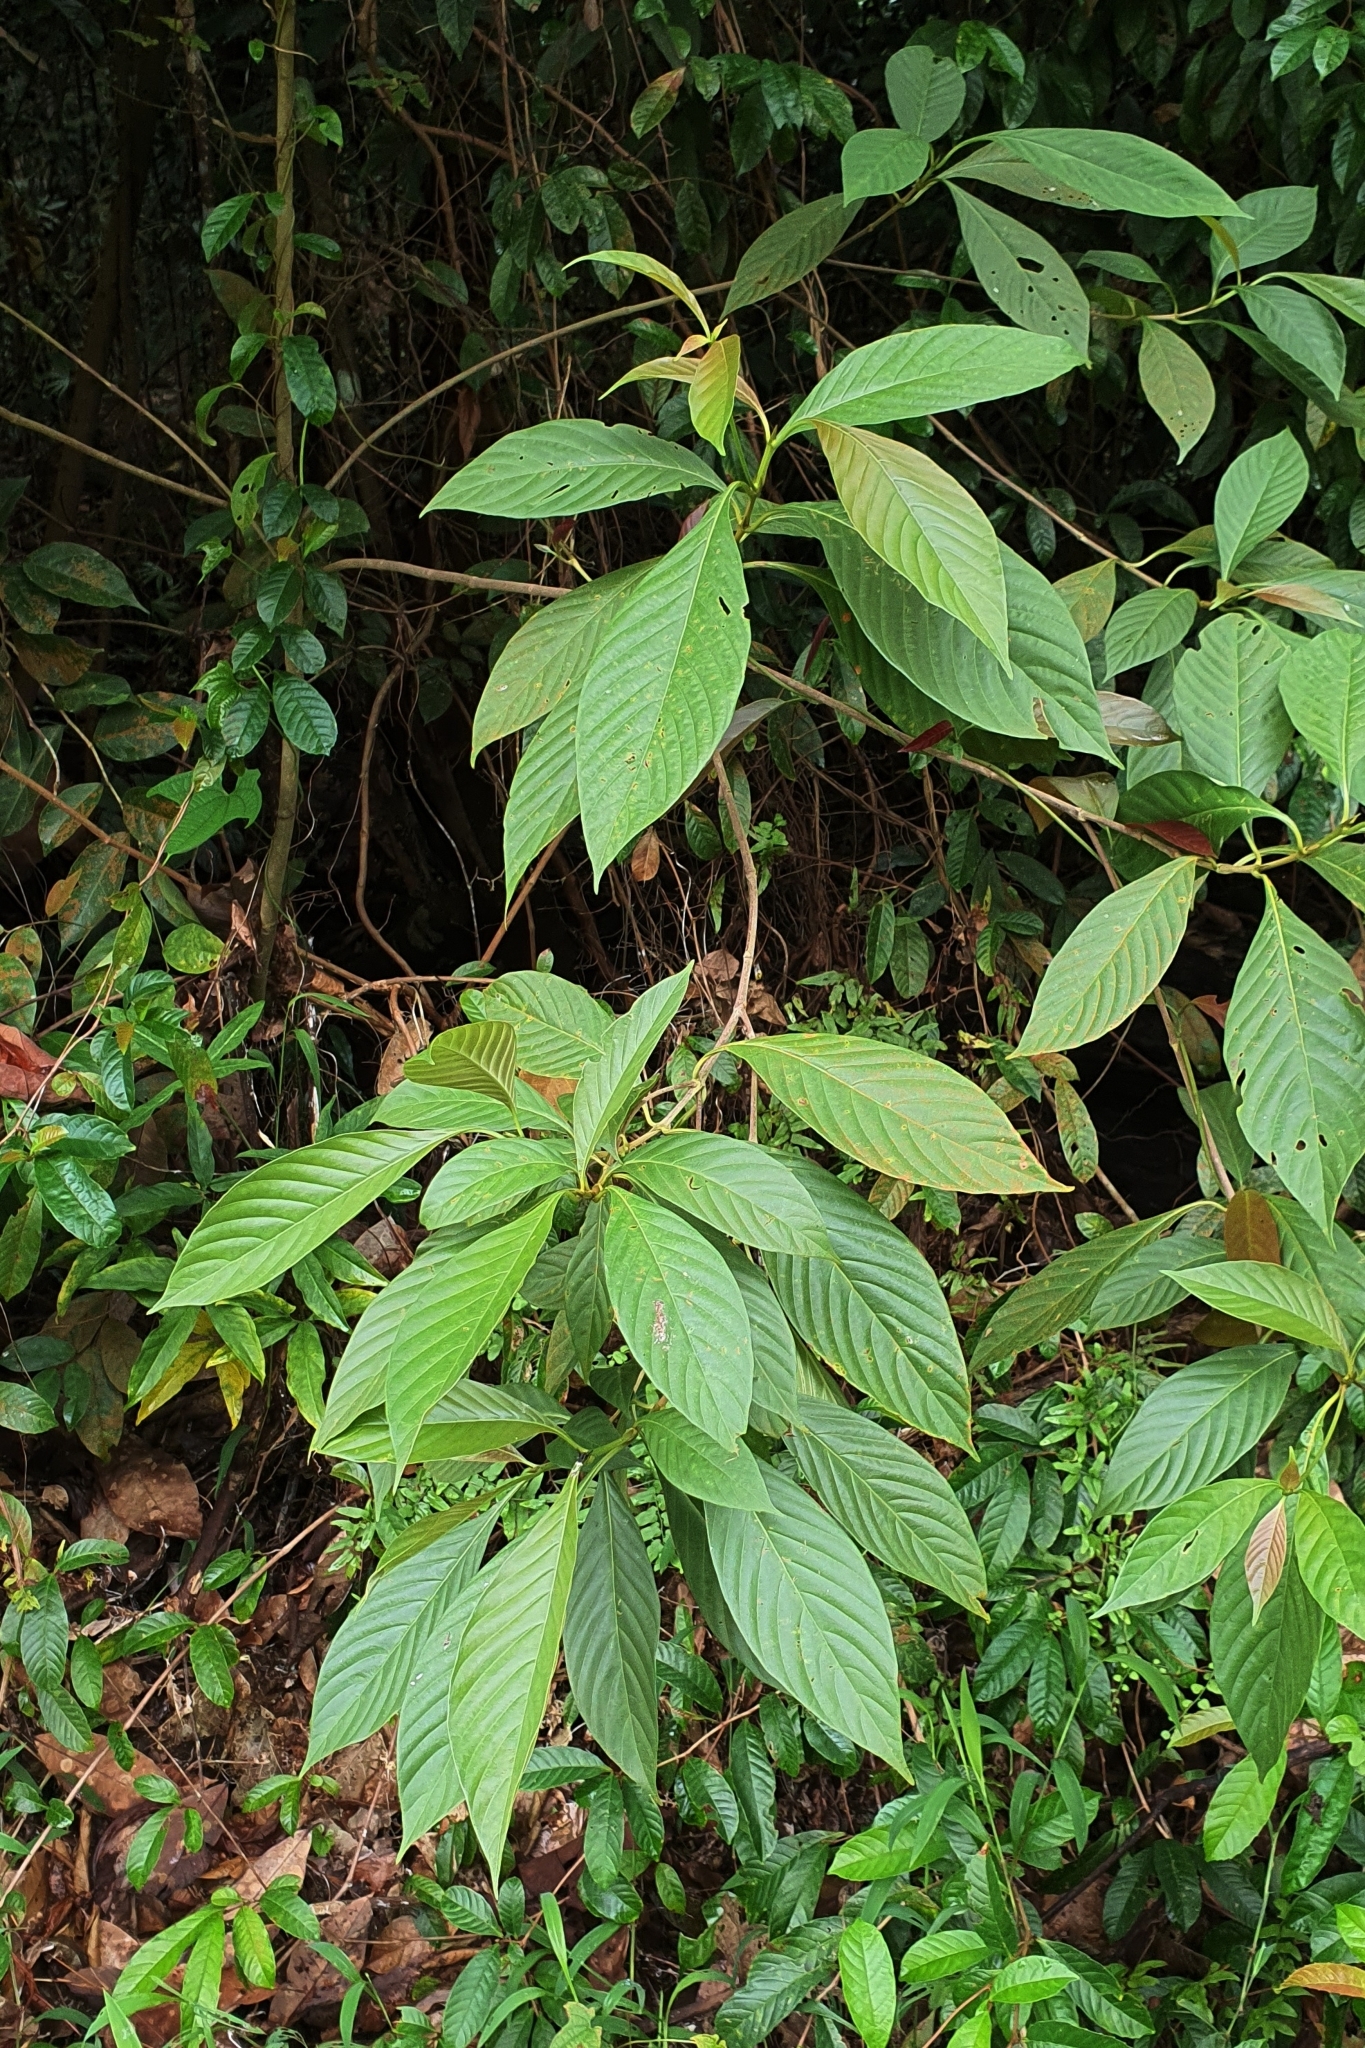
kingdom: Plantae
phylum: Tracheophyta
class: Magnoliopsida
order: Gentianales
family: Rubiaceae
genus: Timonius
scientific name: Timonius wallichianus
